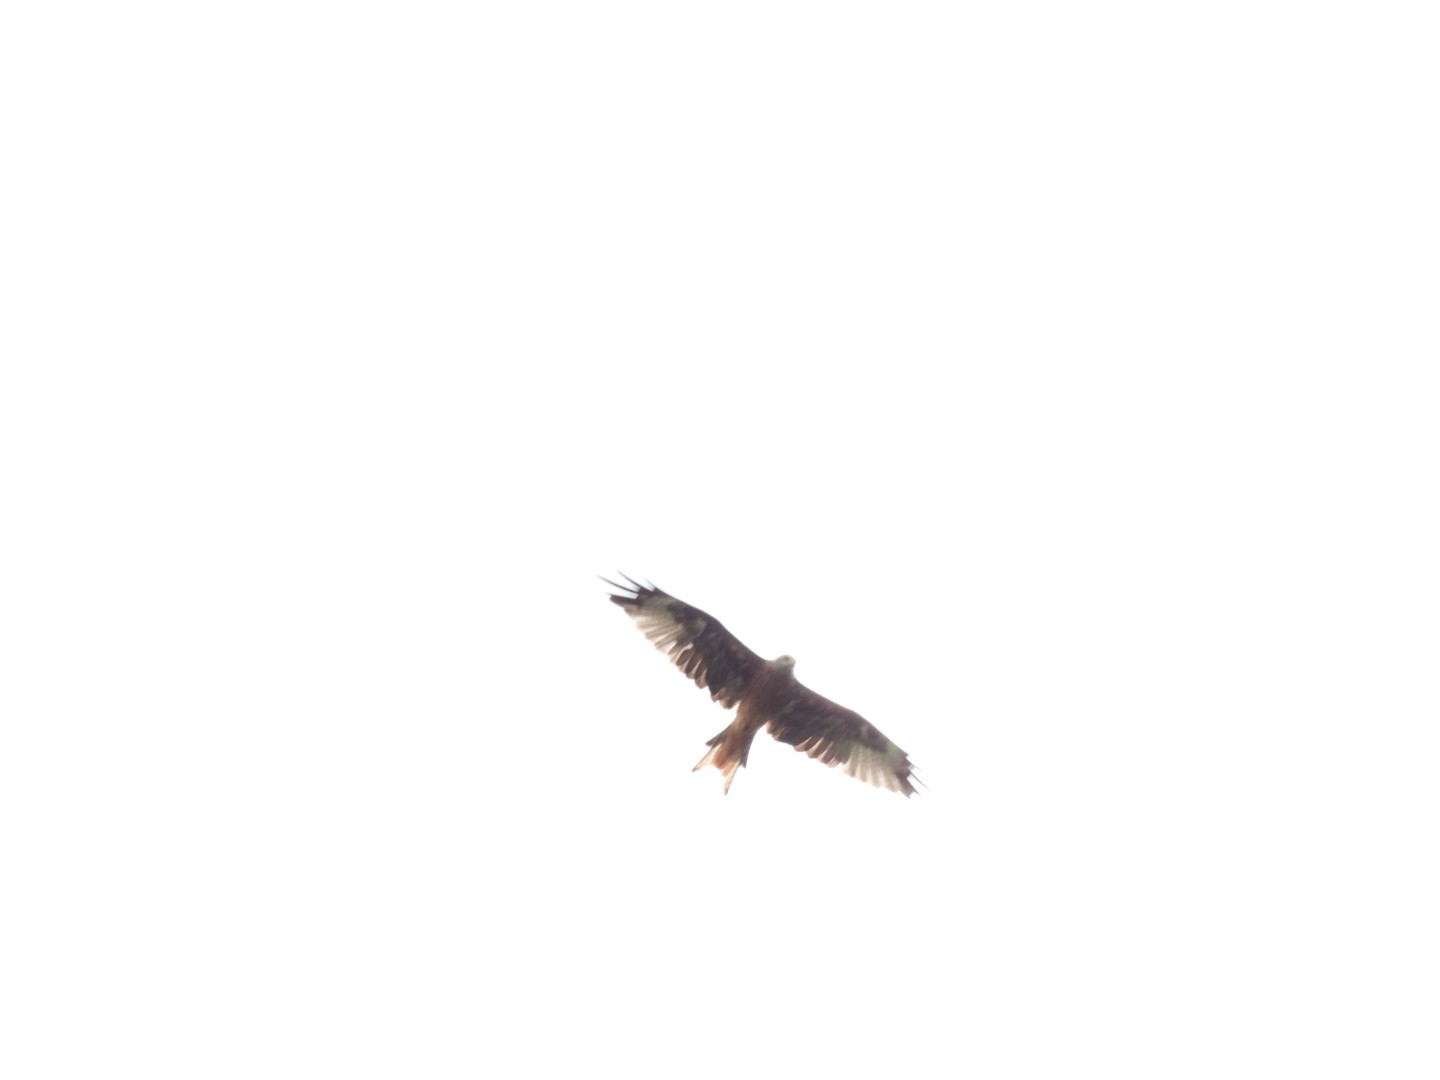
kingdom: Animalia
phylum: Chordata
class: Aves
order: Accipitriformes
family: Accipitridae
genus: Milvus
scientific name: Milvus milvus
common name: Red kite
